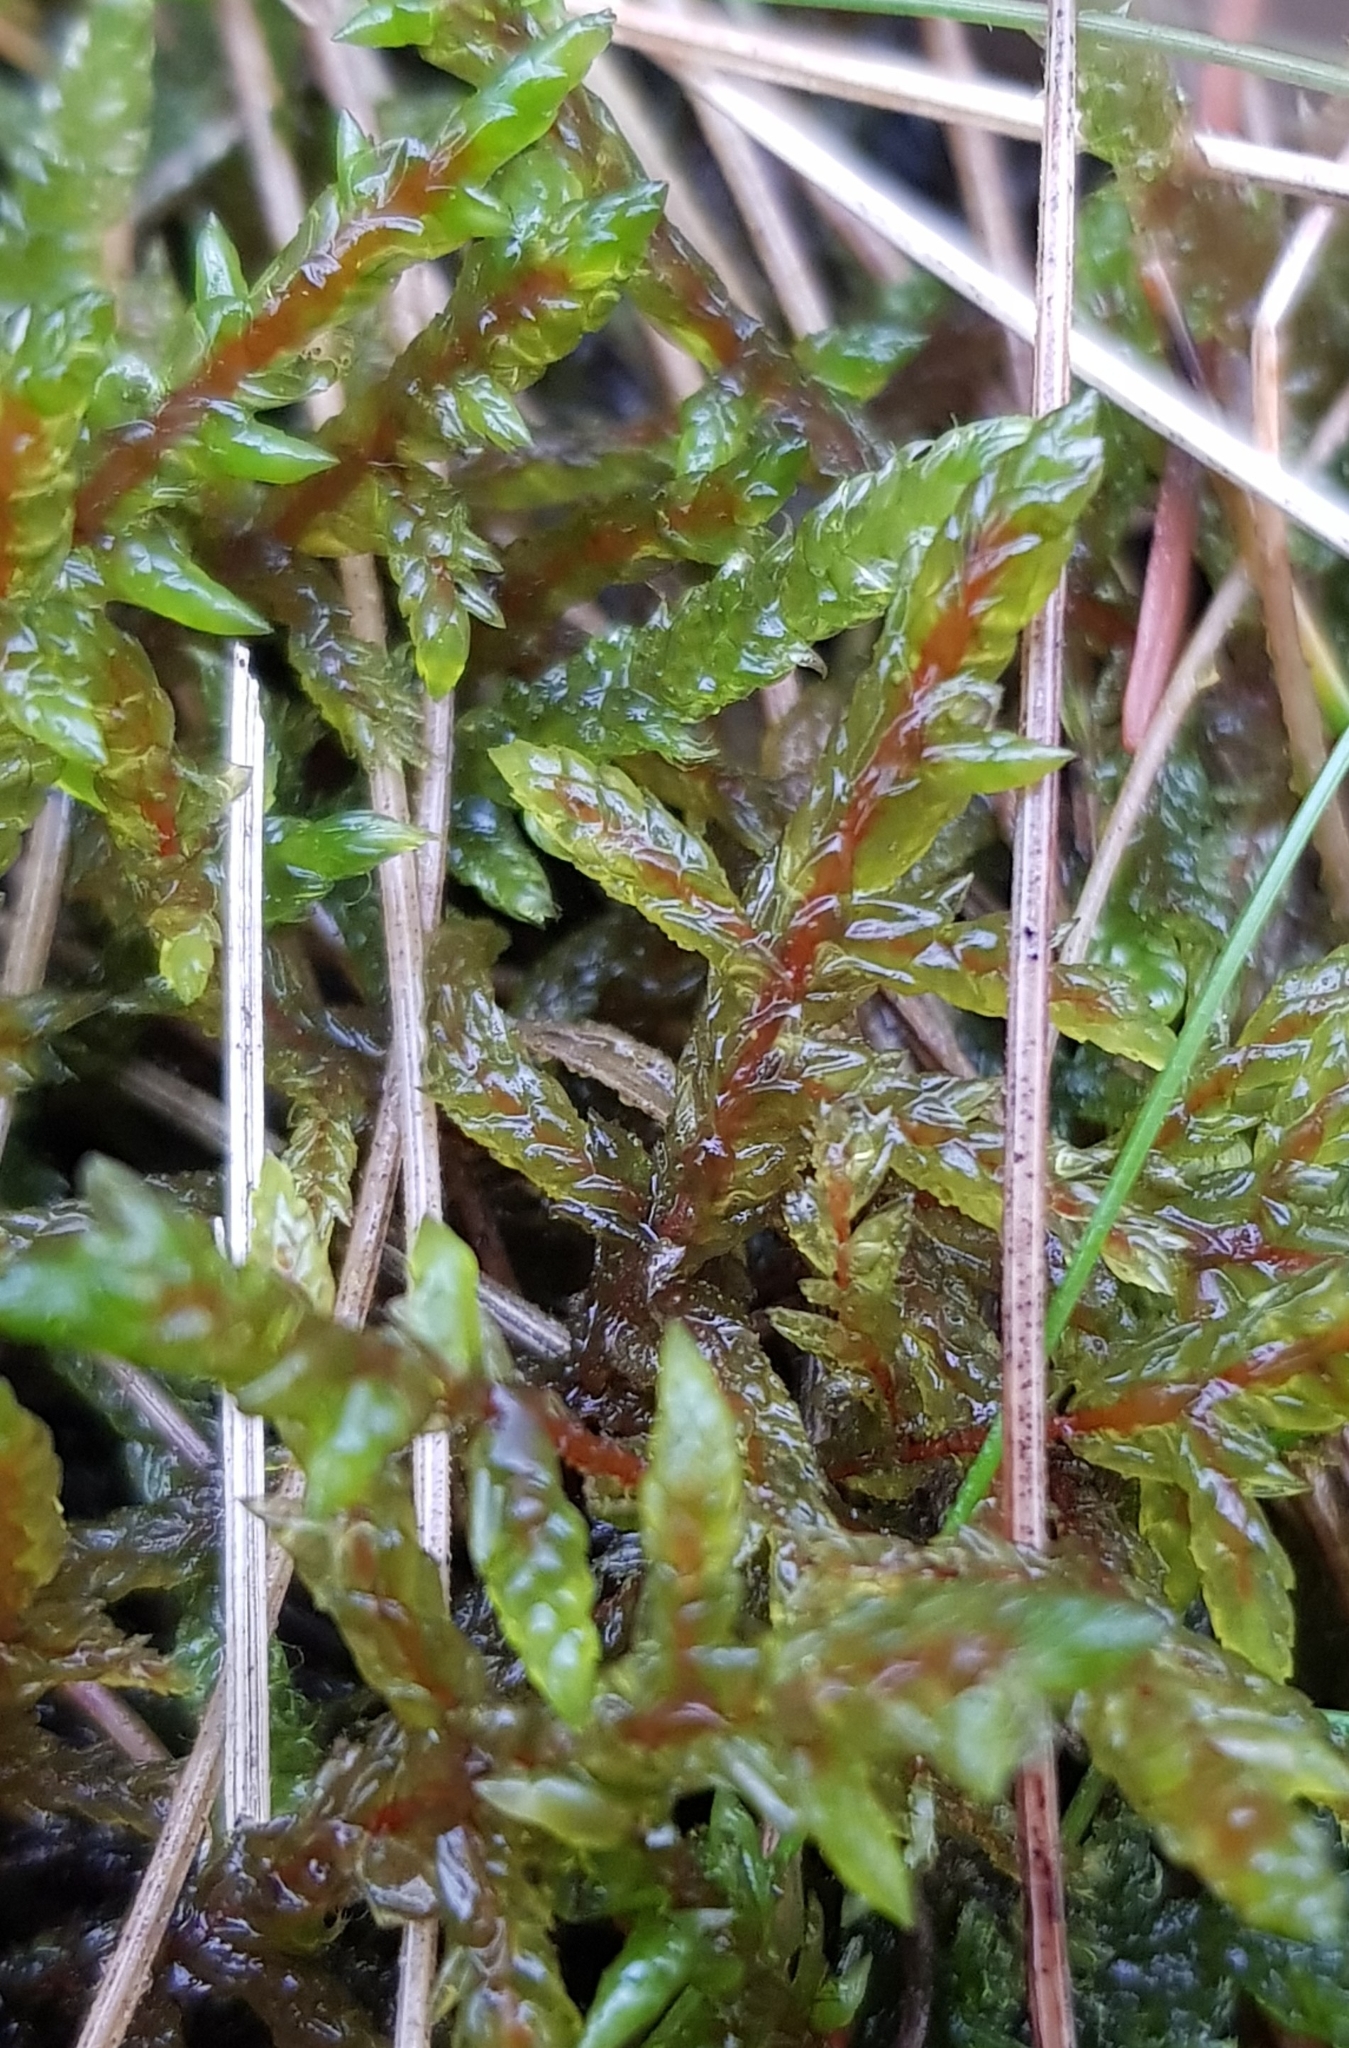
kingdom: Plantae
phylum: Bryophyta
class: Bryopsida
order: Hypnales
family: Hylocomiaceae
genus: Pleurozium
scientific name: Pleurozium schreberi
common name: Red-stemmed feather moss
